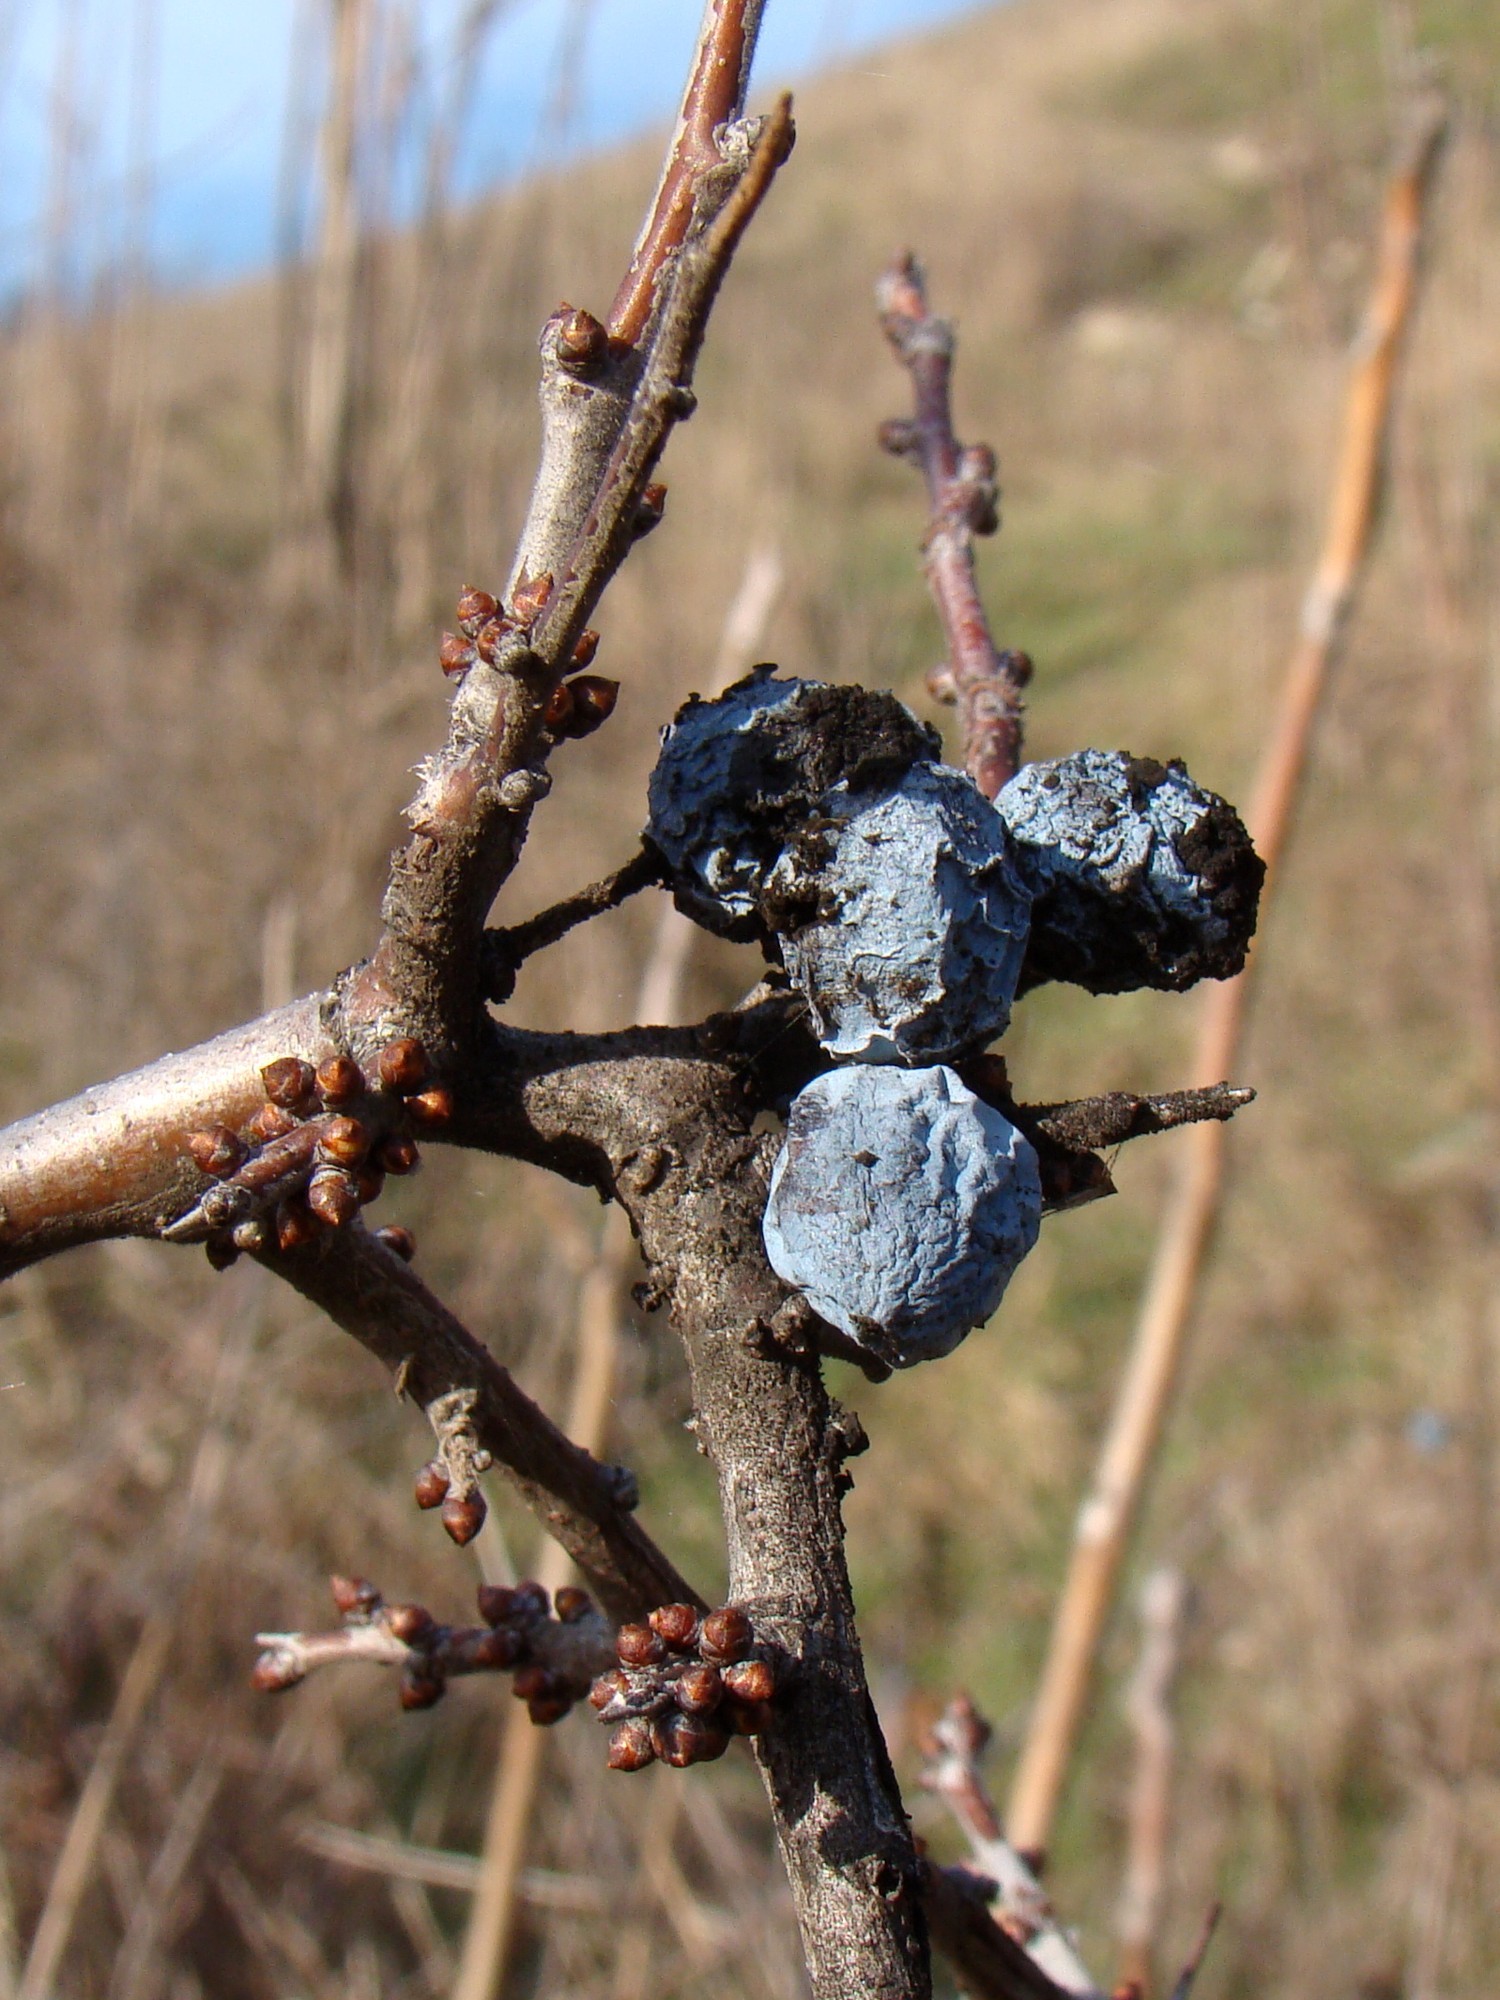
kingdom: Plantae
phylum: Tracheophyta
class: Magnoliopsida
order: Rosales
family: Rosaceae
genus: Prunus
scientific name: Prunus spinosa
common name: Blackthorn
